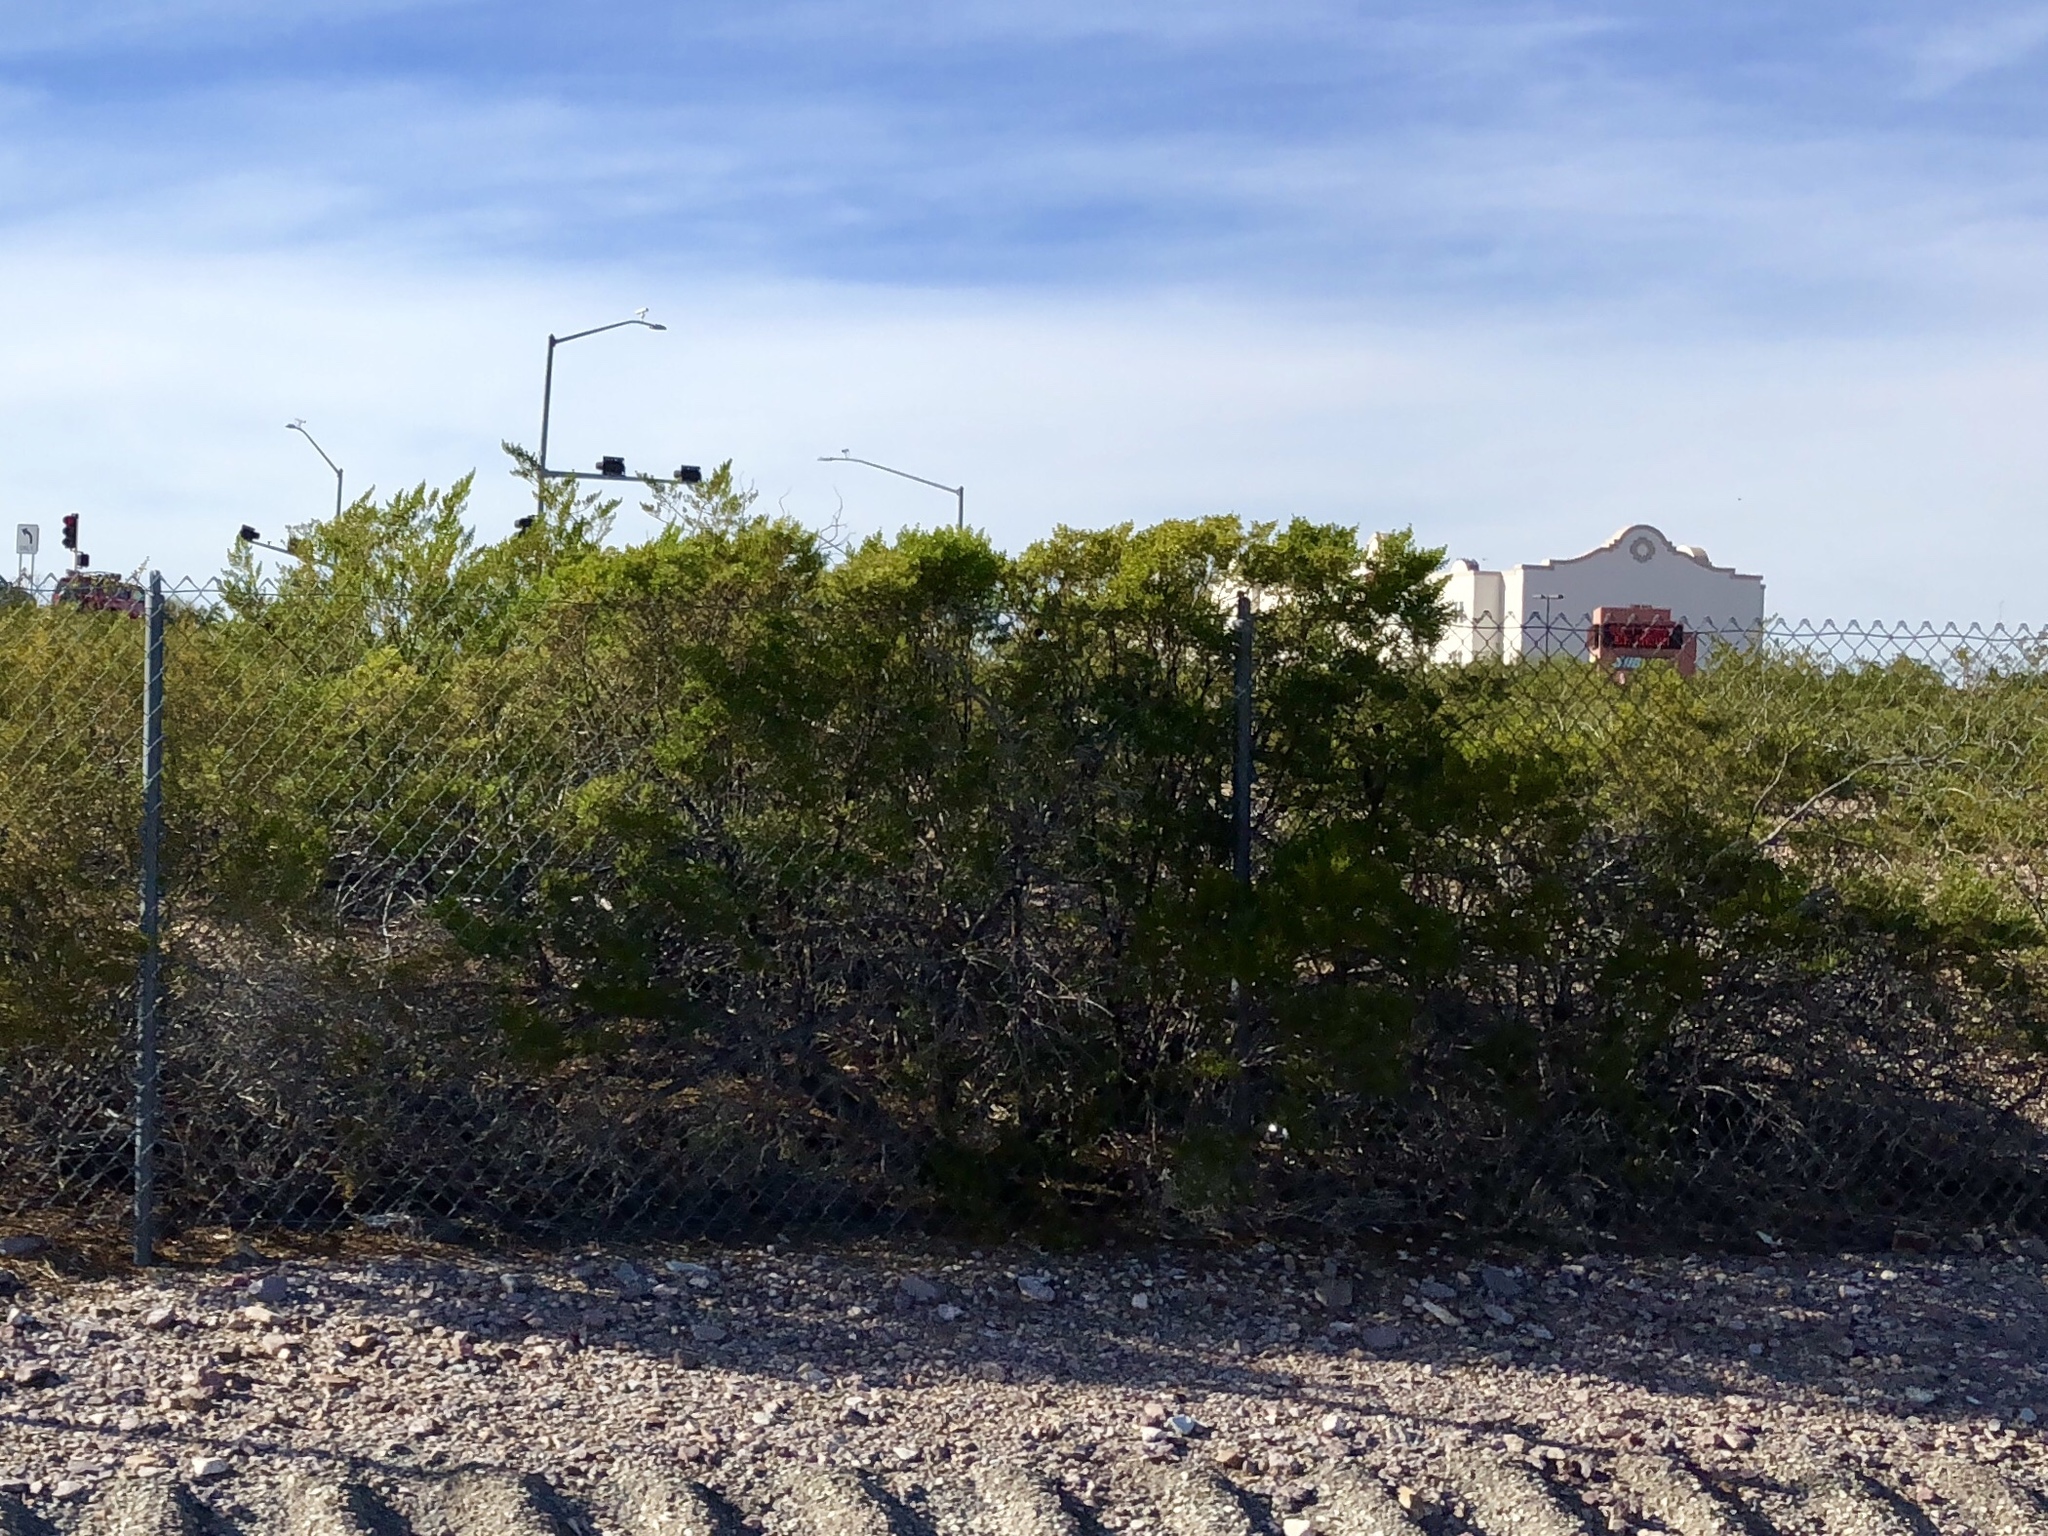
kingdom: Plantae
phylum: Tracheophyta
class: Magnoliopsida
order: Zygophyllales
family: Zygophyllaceae
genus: Larrea
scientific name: Larrea tridentata
